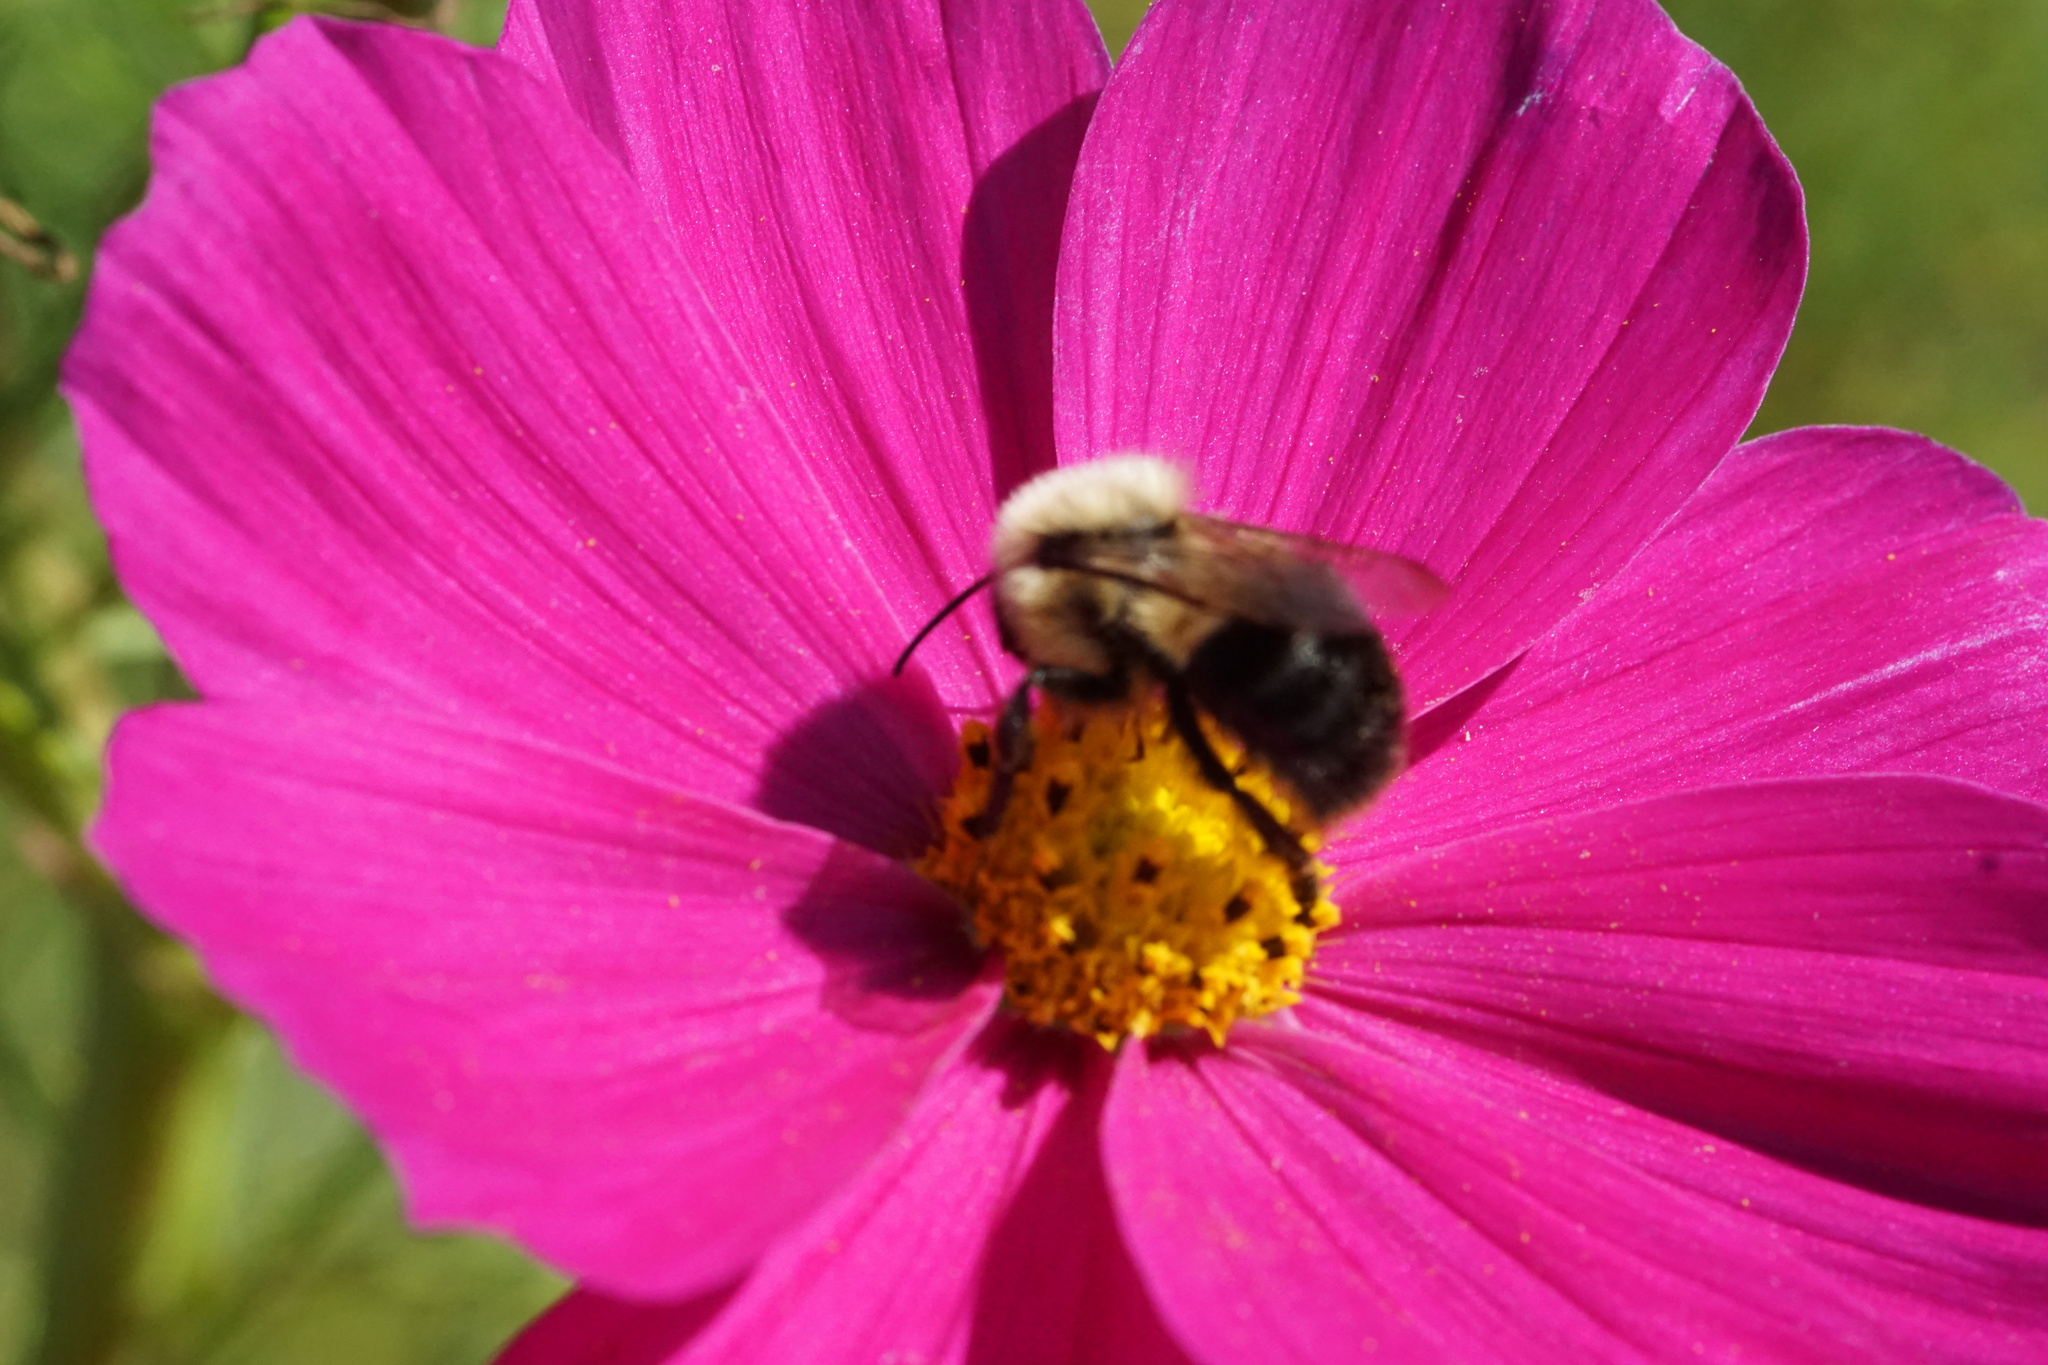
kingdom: Animalia
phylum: Arthropoda
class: Insecta
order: Hymenoptera
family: Apidae
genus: Bombus
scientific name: Bombus impatiens
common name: Common eastern bumble bee
